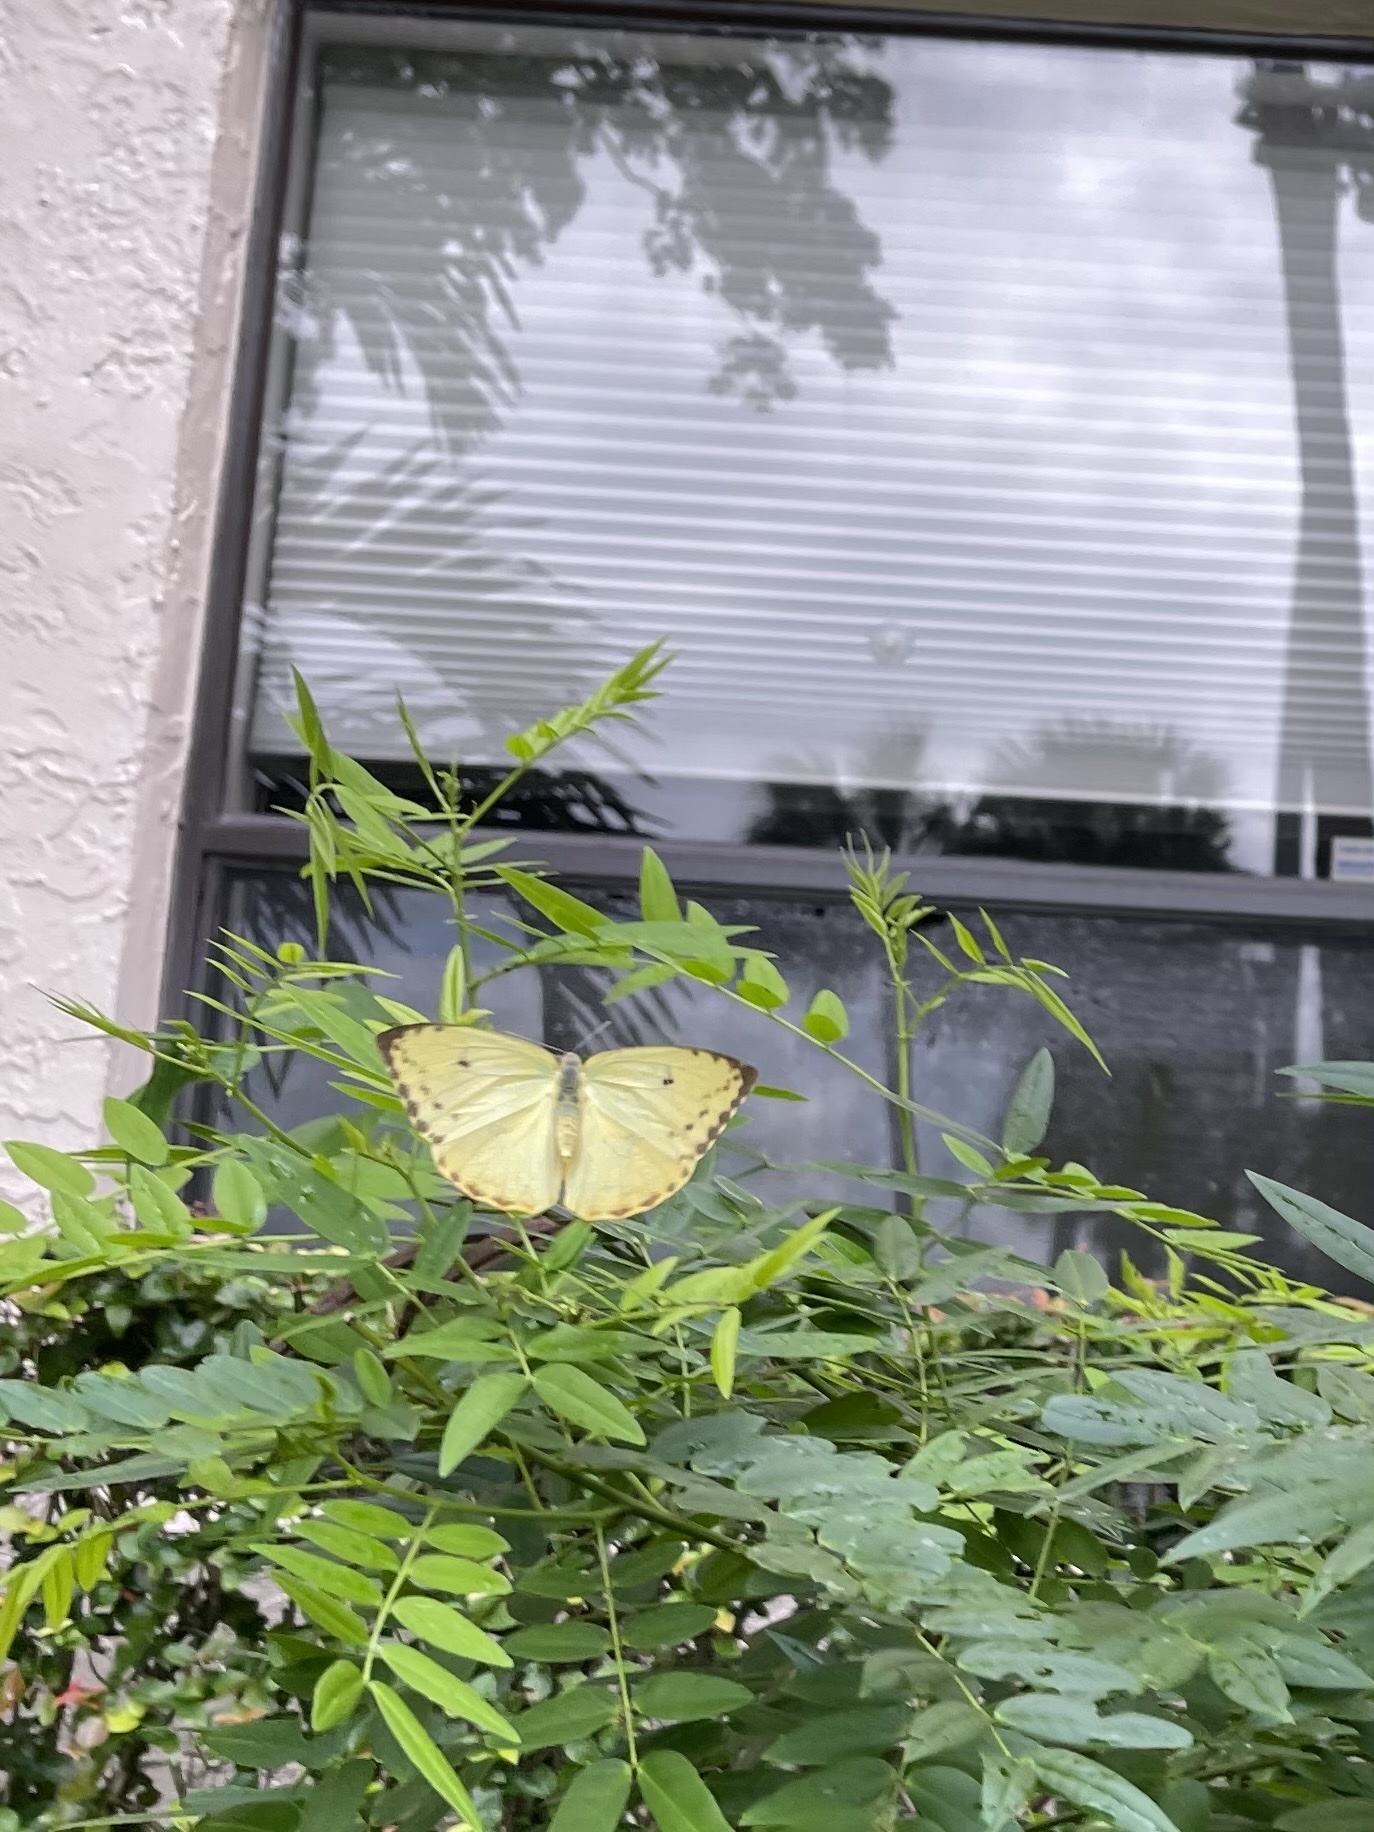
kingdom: Animalia
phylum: Arthropoda
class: Insecta
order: Lepidoptera
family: Pieridae
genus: Phoebis
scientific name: Phoebis philea
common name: Orange-barred giant sulphur
